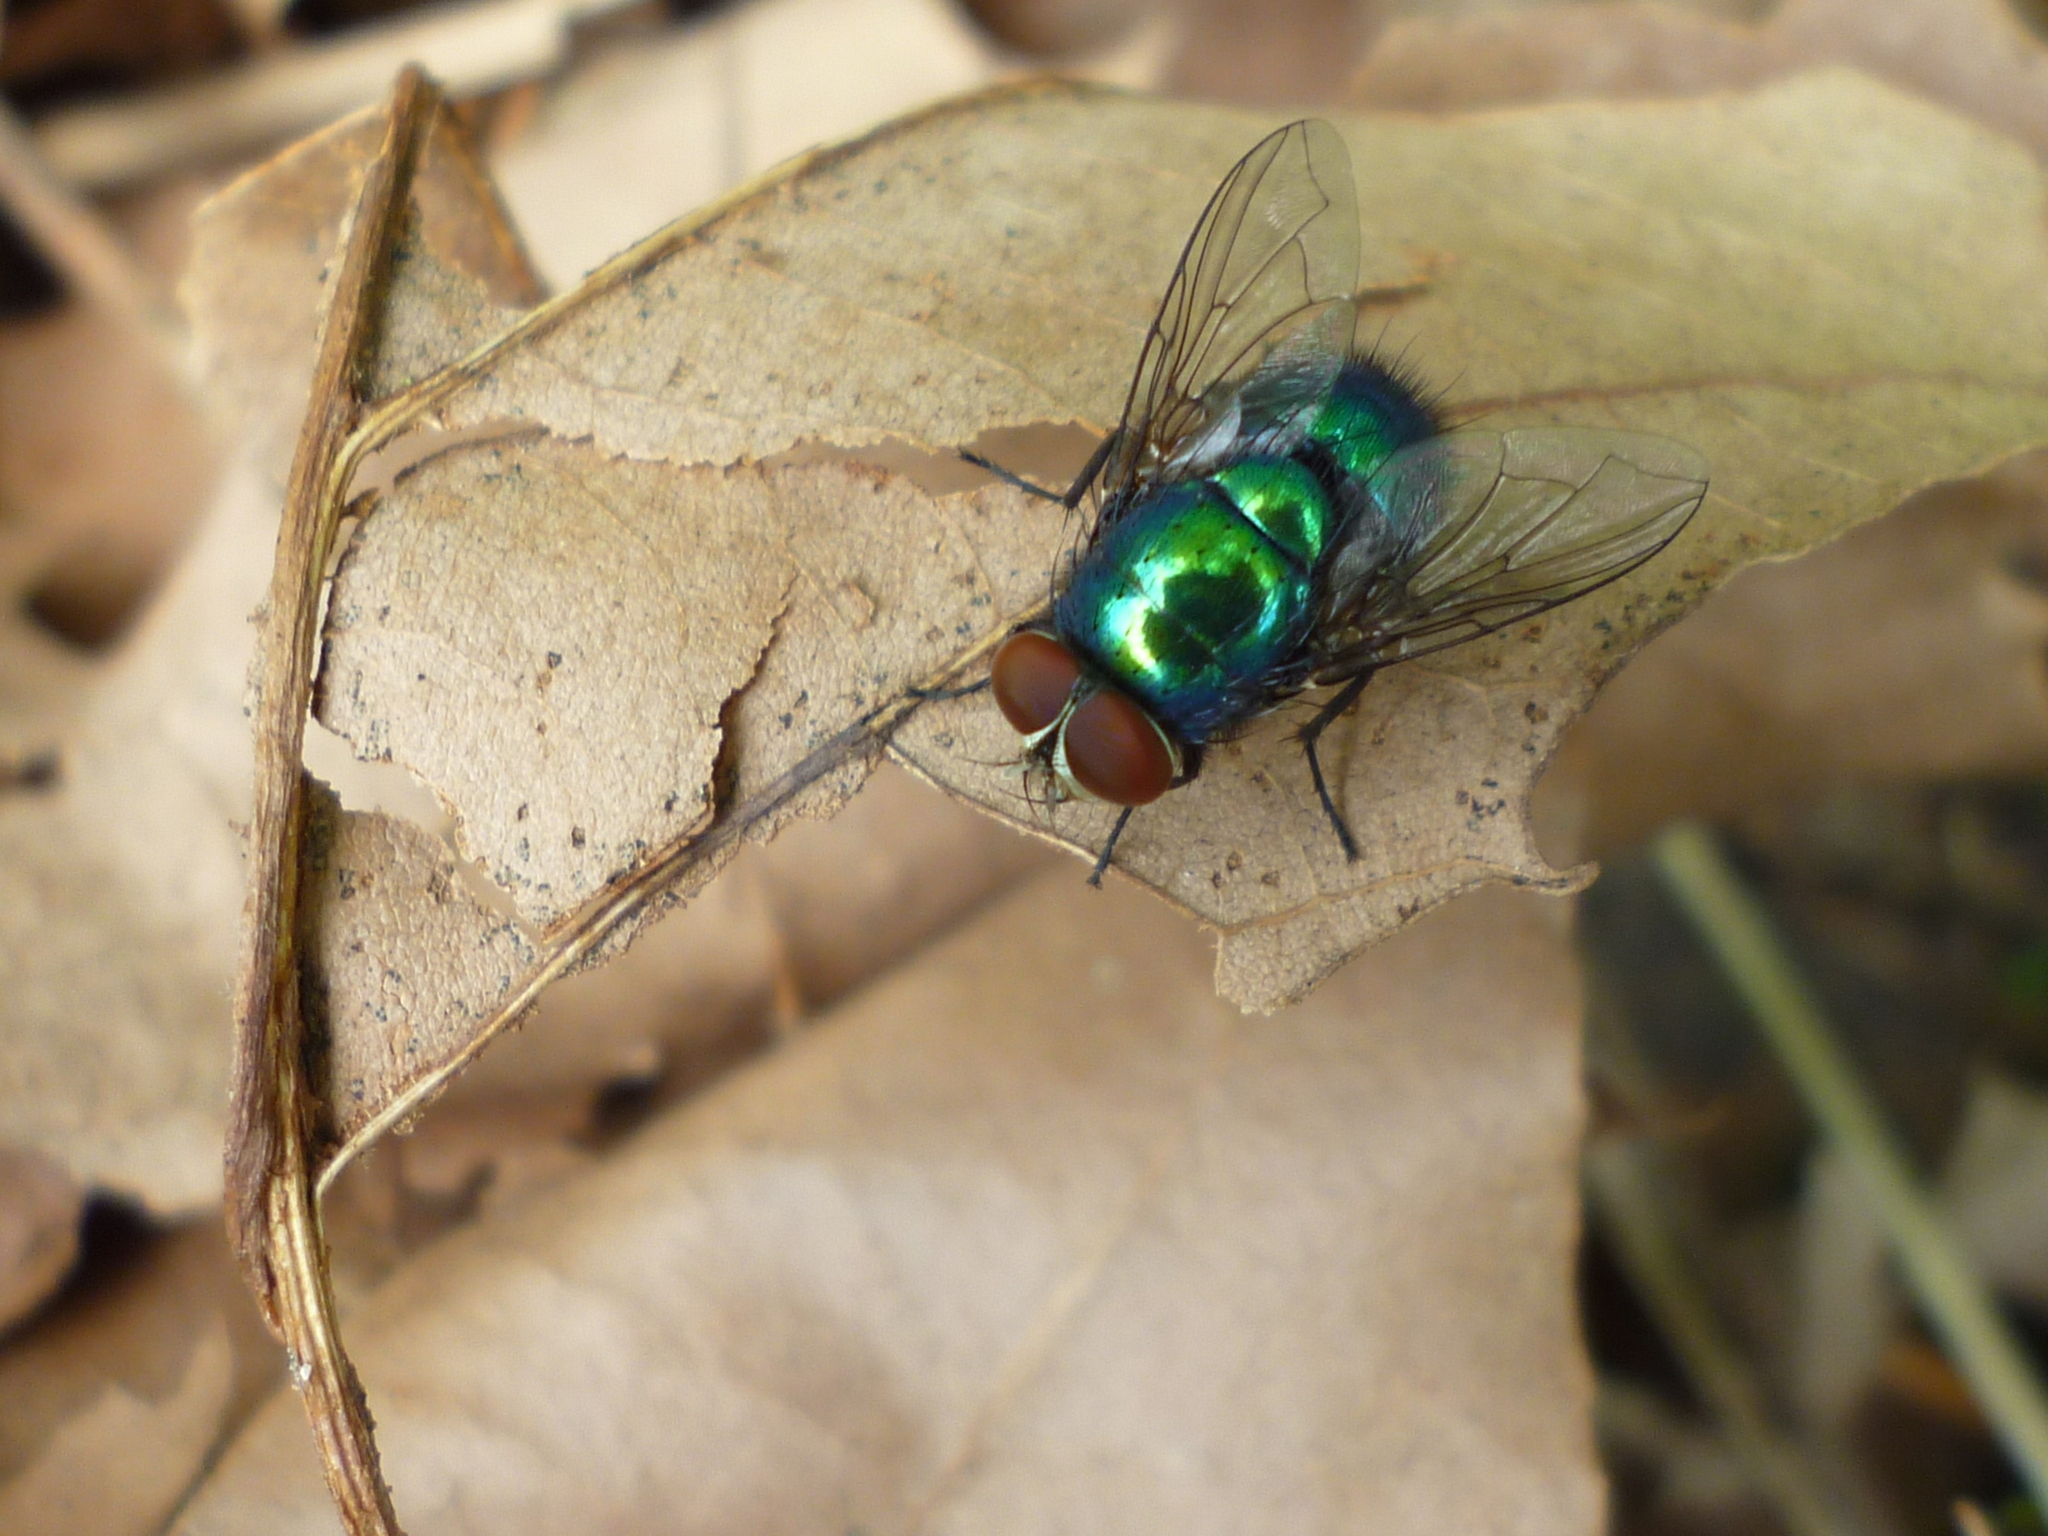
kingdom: Animalia
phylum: Arthropoda
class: Insecta
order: Diptera
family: Calliphoridae
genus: Lucilia
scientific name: Lucilia caeruleiviridis
